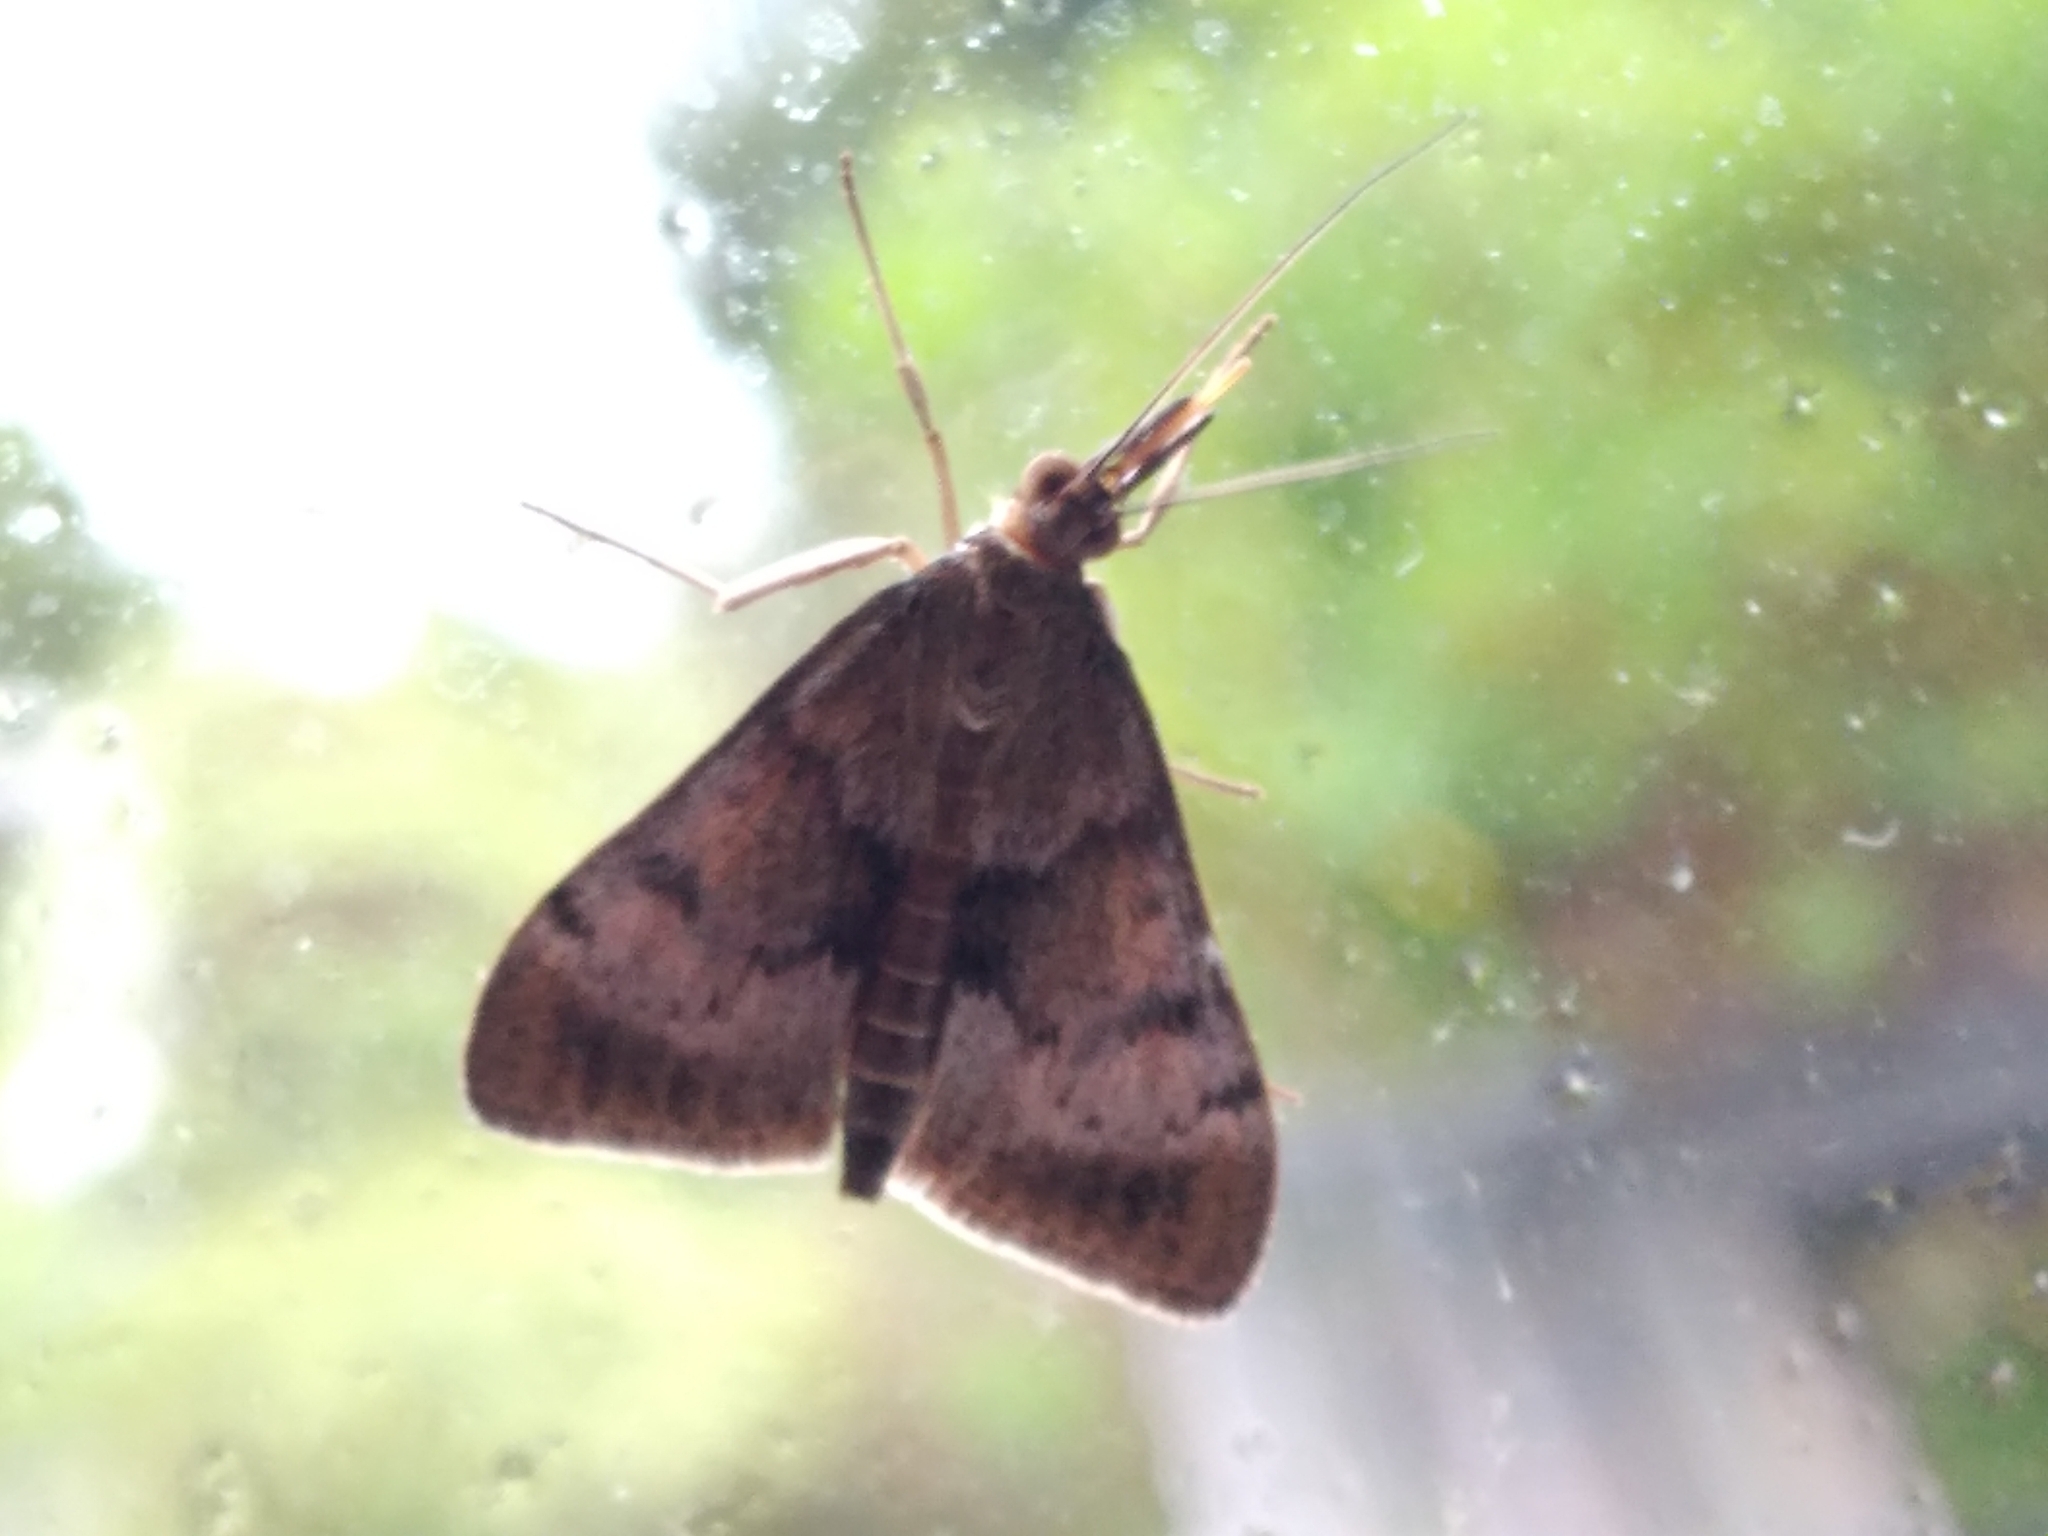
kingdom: Animalia
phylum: Arthropoda
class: Insecta
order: Lepidoptera
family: Crambidae
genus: Uresiphita
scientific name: Uresiphita
